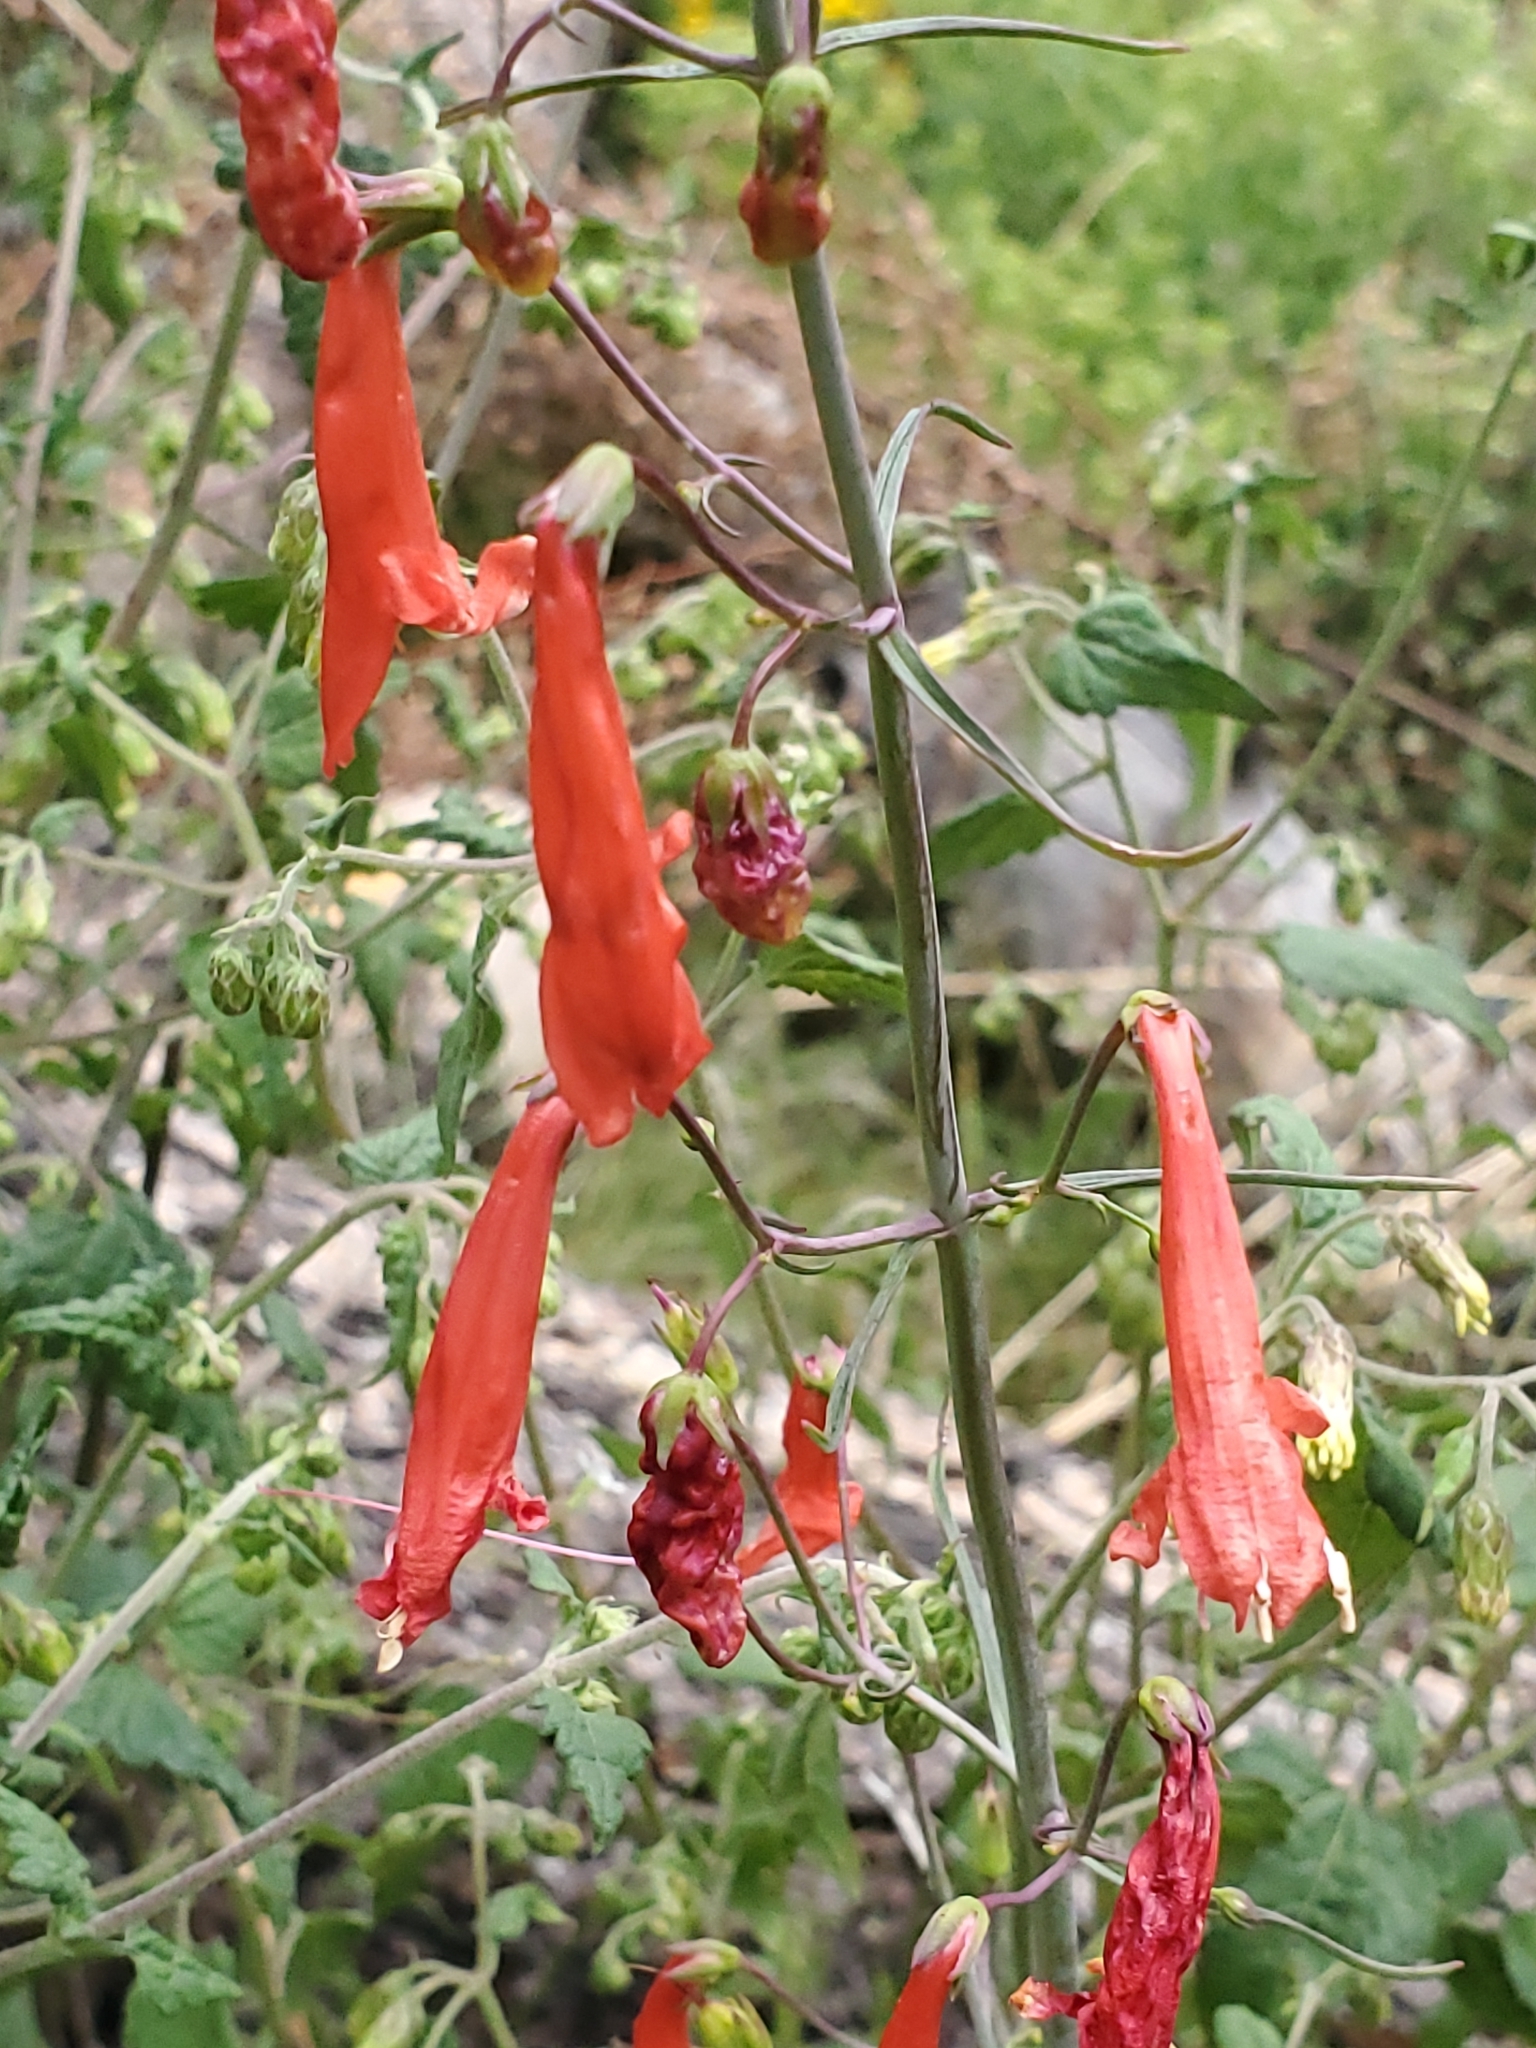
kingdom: Plantae
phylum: Tracheophyta
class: Magnoliopsida
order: Lamiales
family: Plantaginaceae
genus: Penstemon
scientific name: Penstemon barbatus
